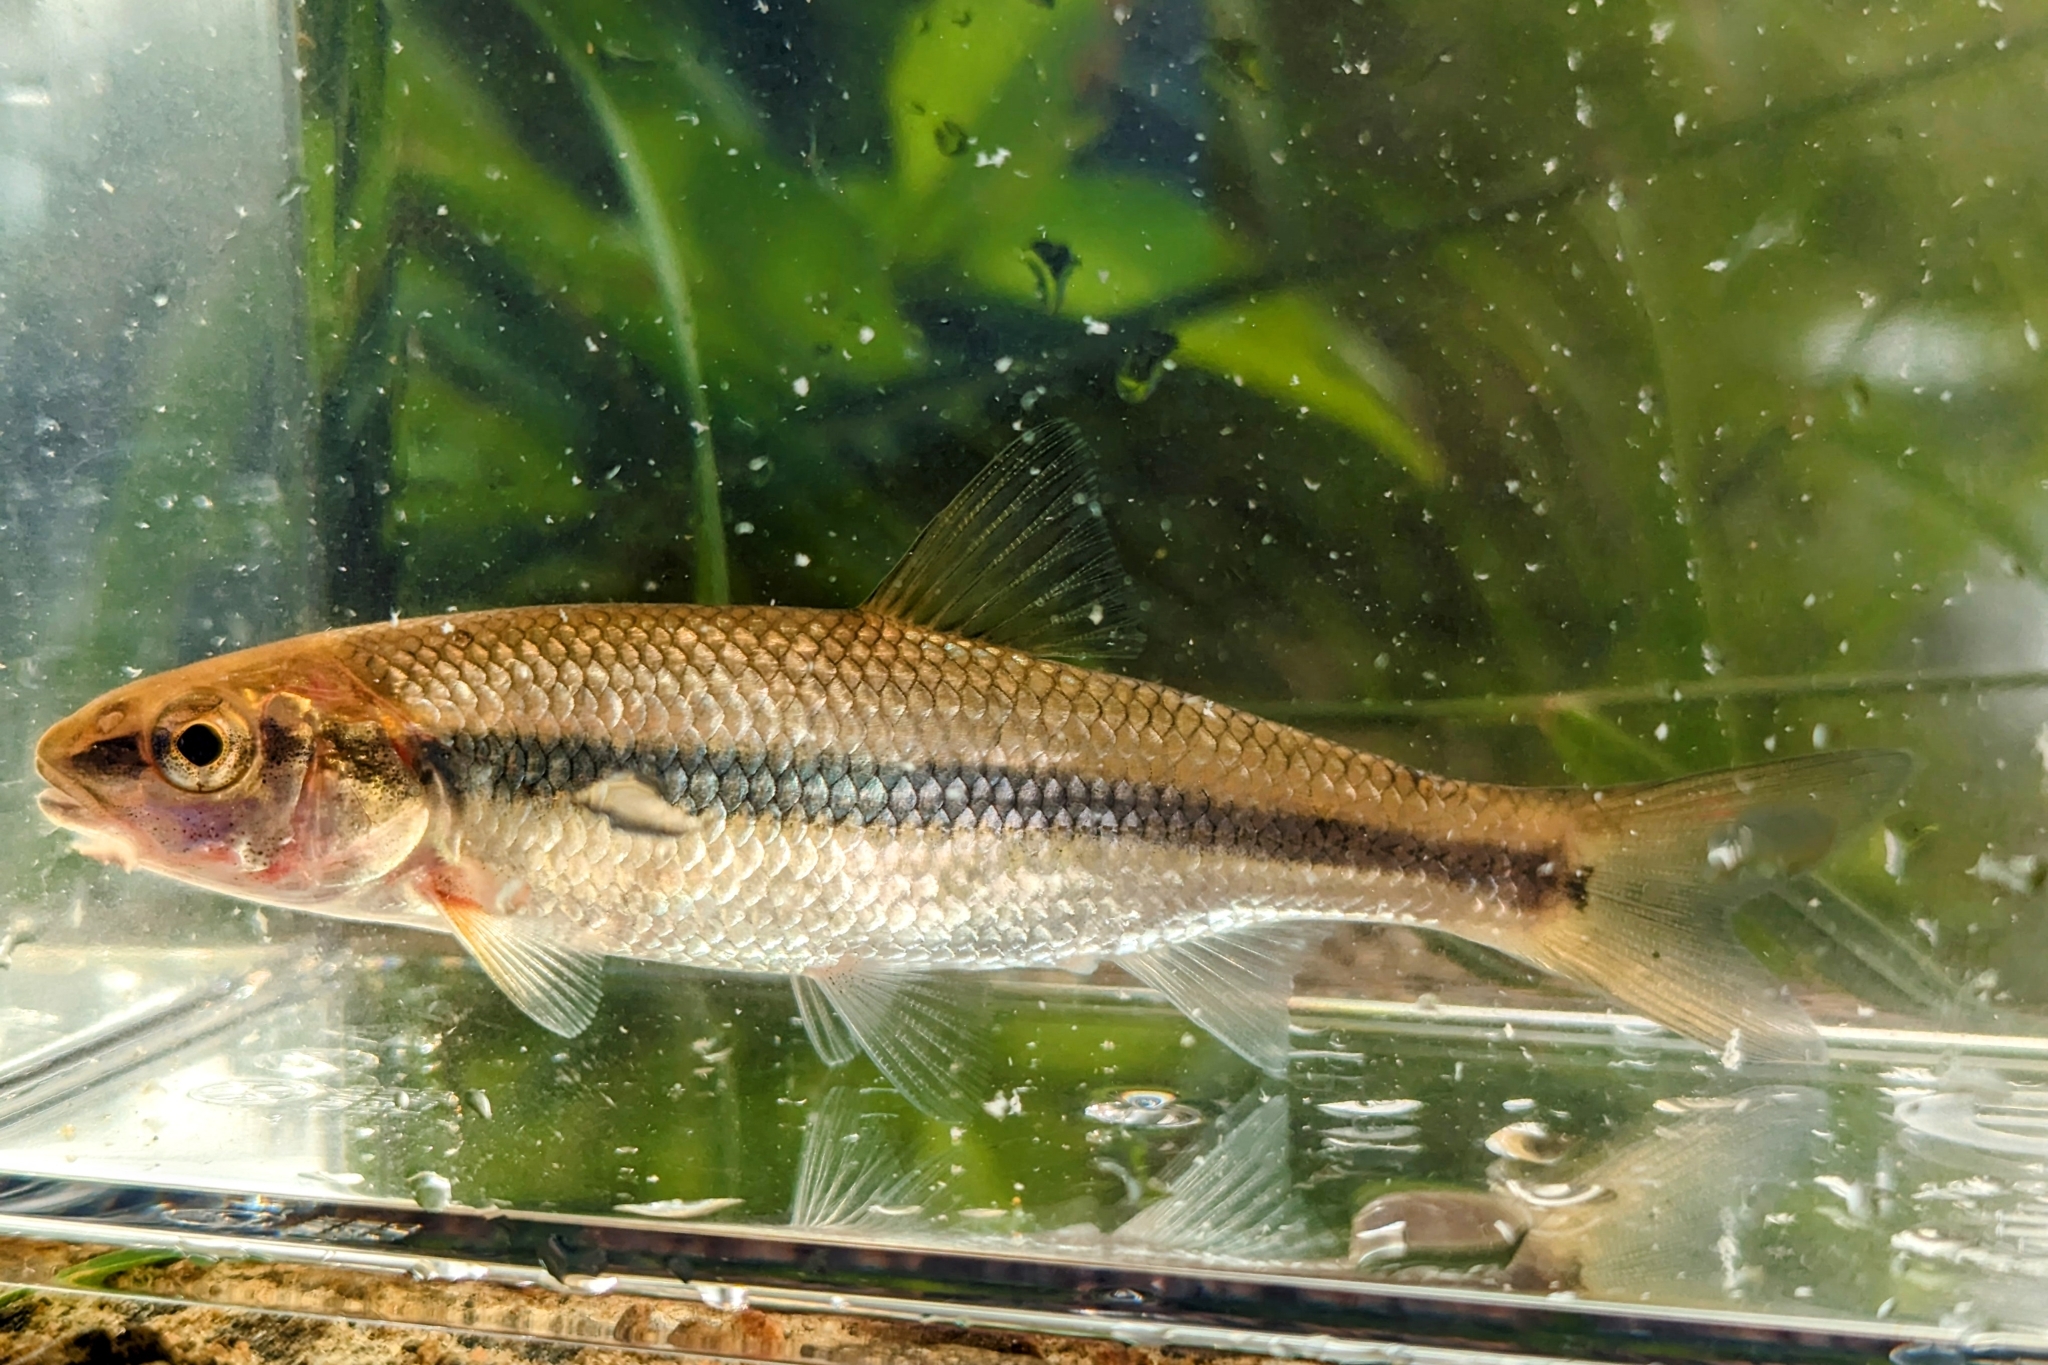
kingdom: Animalia
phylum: Chordata
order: Cypriniformes
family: Cyprinidae
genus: Semotilus
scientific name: Semotilus corporalis
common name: Fallfish
